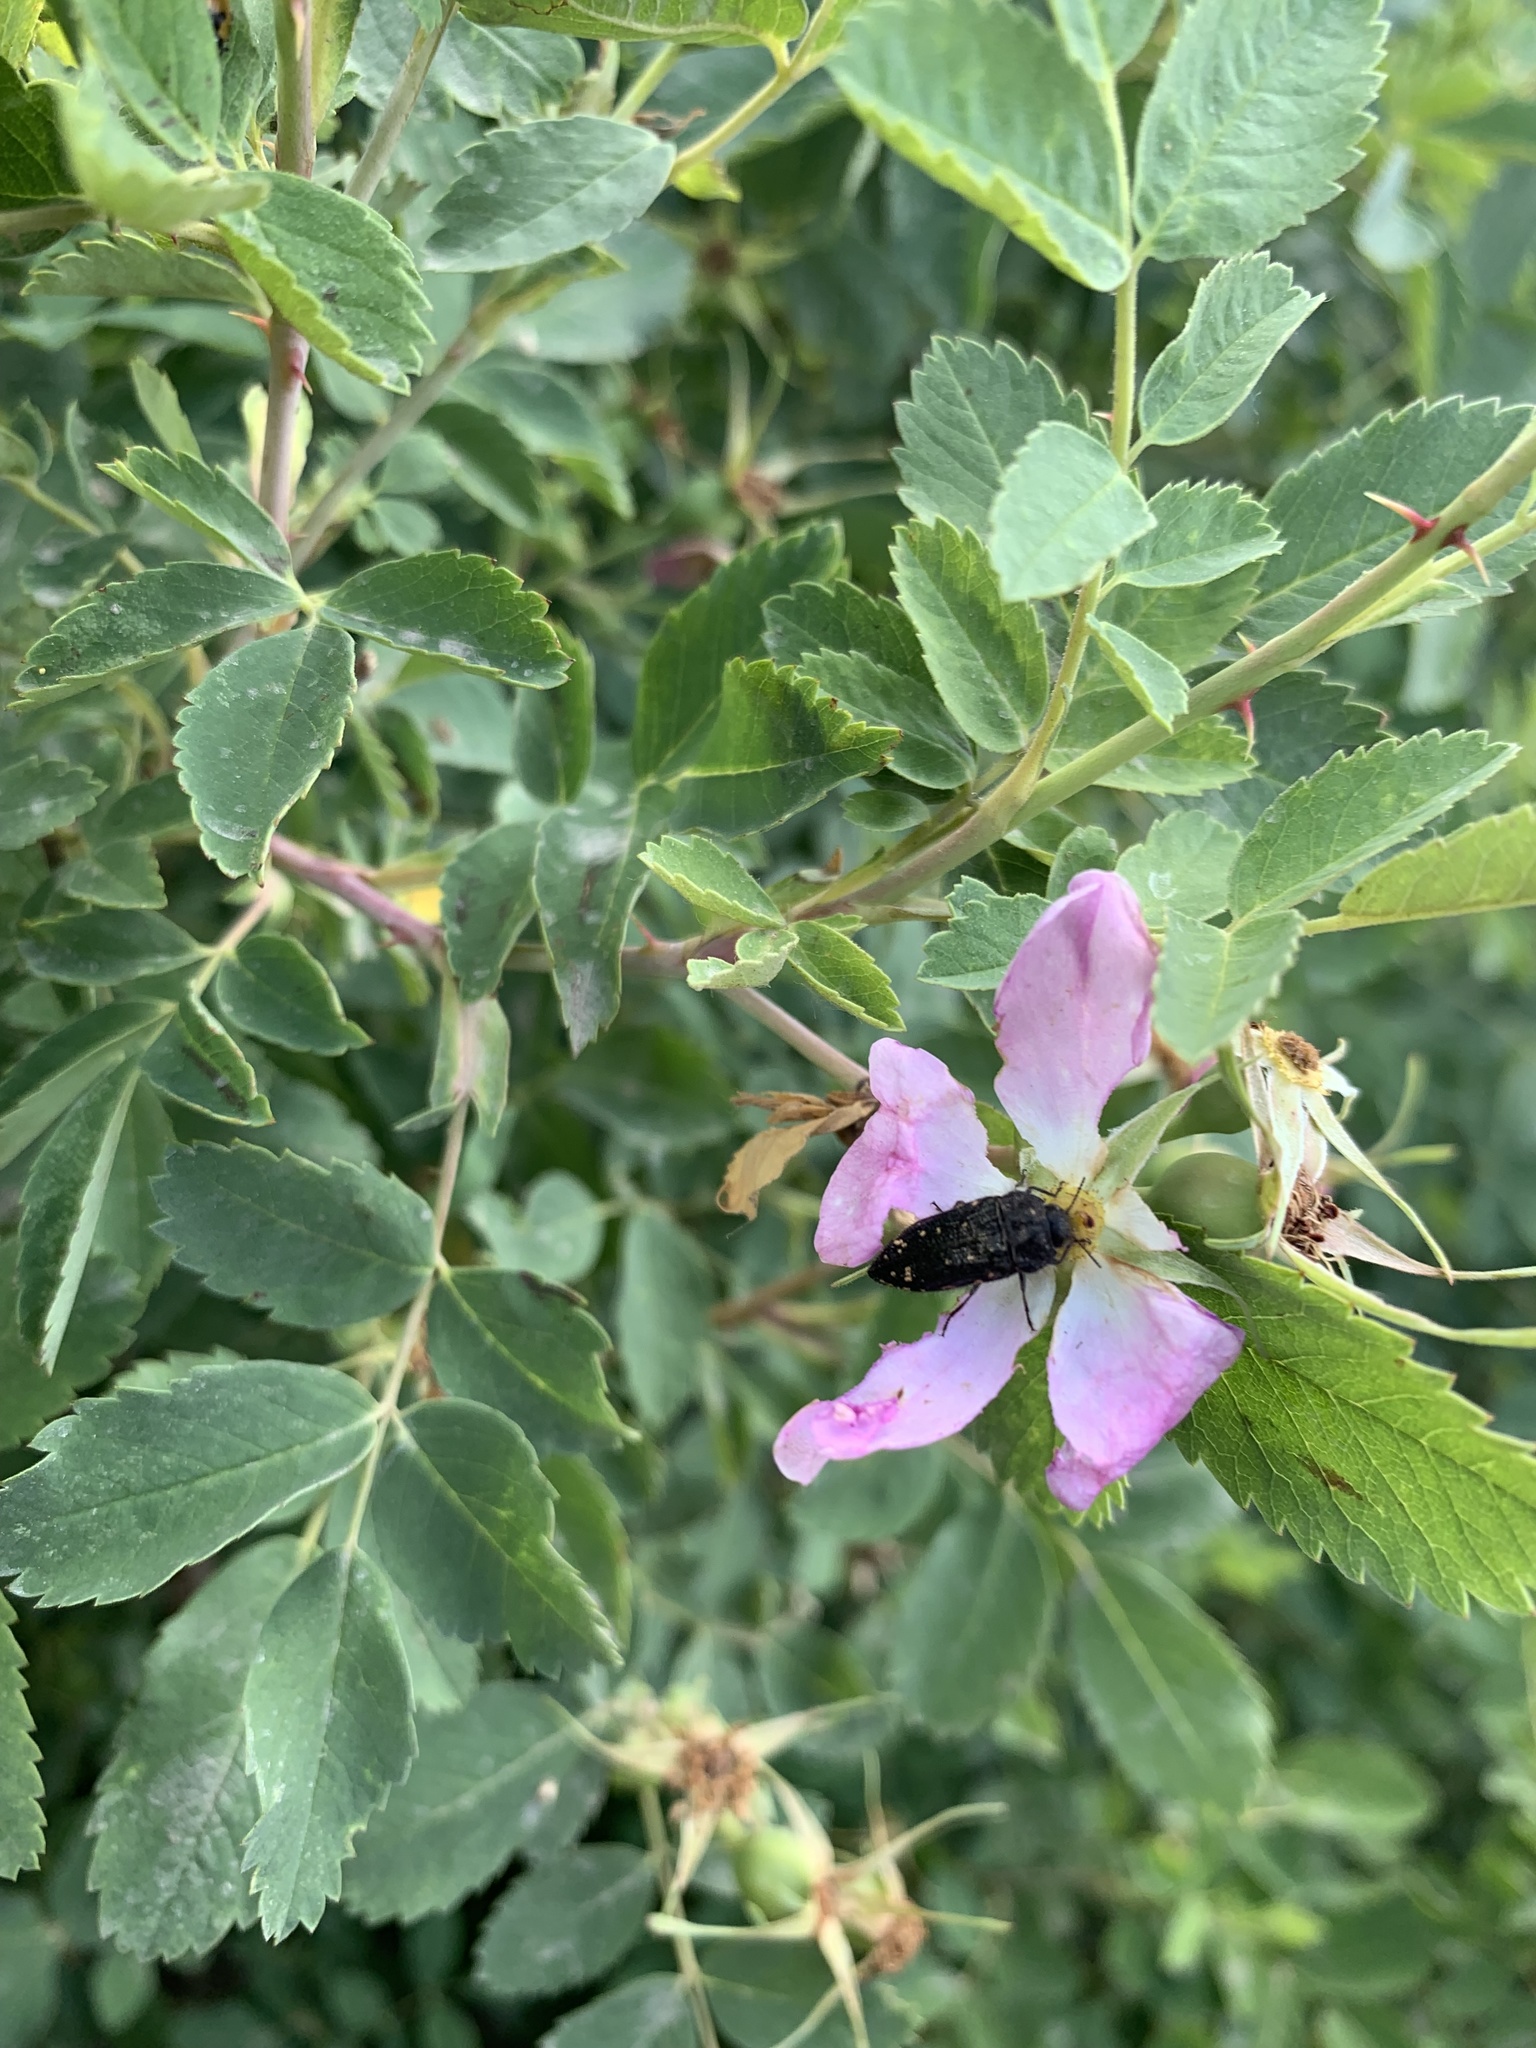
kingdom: Animalia
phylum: Arthropoda
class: Insecta
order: Coleoptera
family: Buprestidae
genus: Acmaeodera
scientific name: Acmaeodera knowltoni
